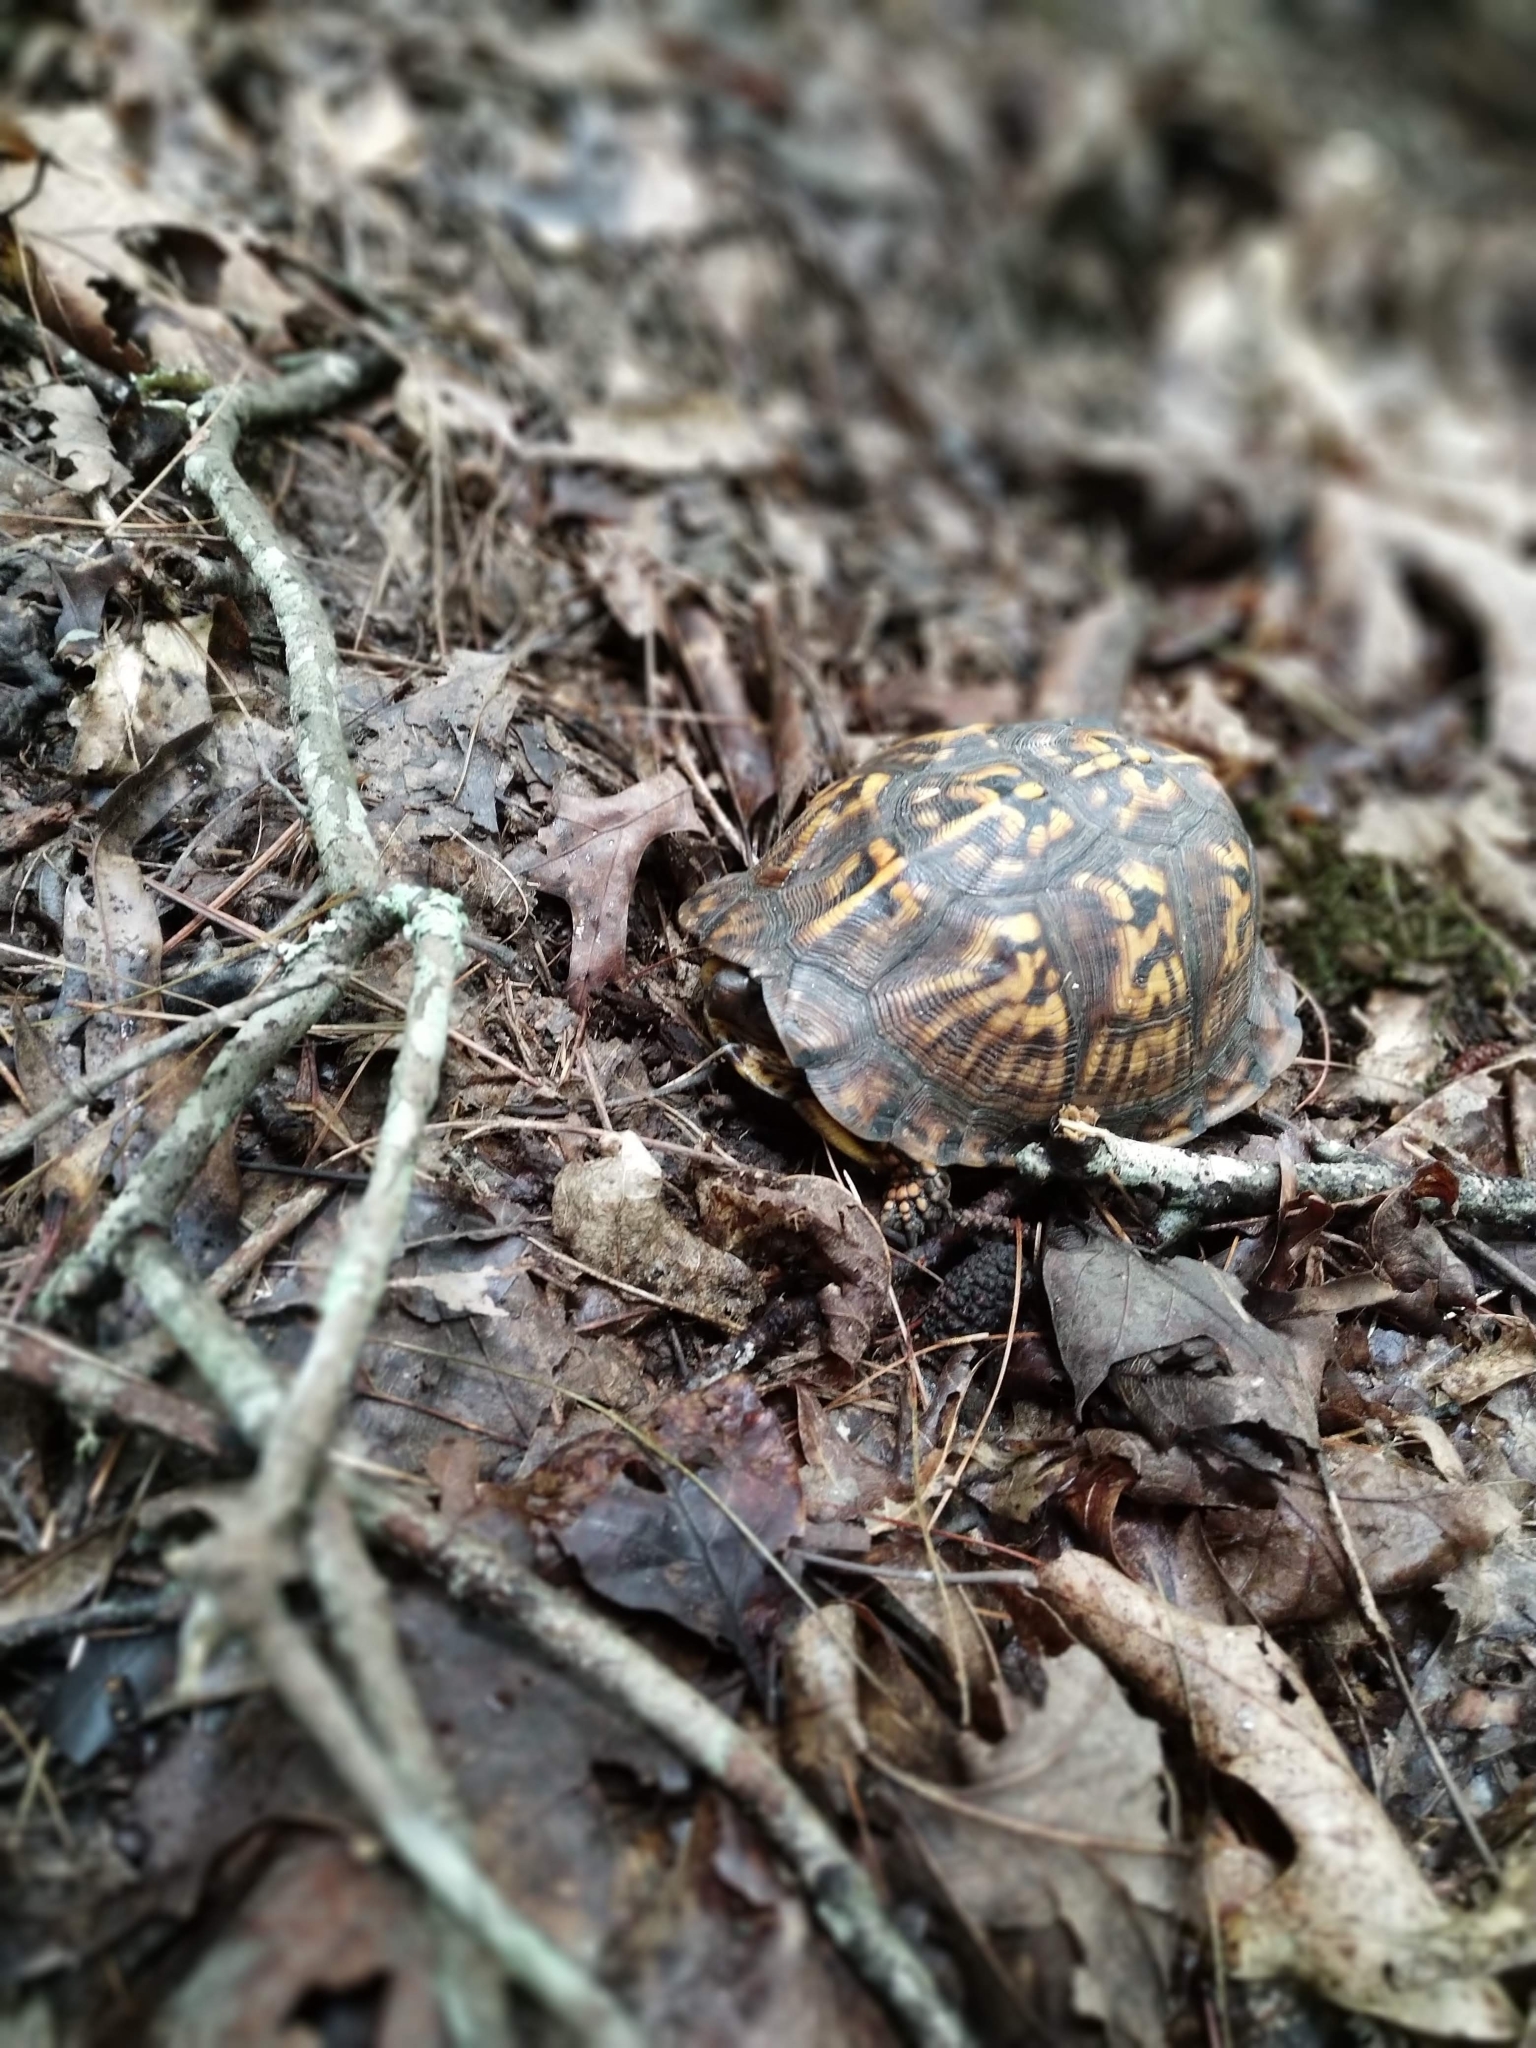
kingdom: Animalia
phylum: Chordata
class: Testudines
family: Emydidae
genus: Terrapene
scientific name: Terrapene carolina
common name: Common box turtle
